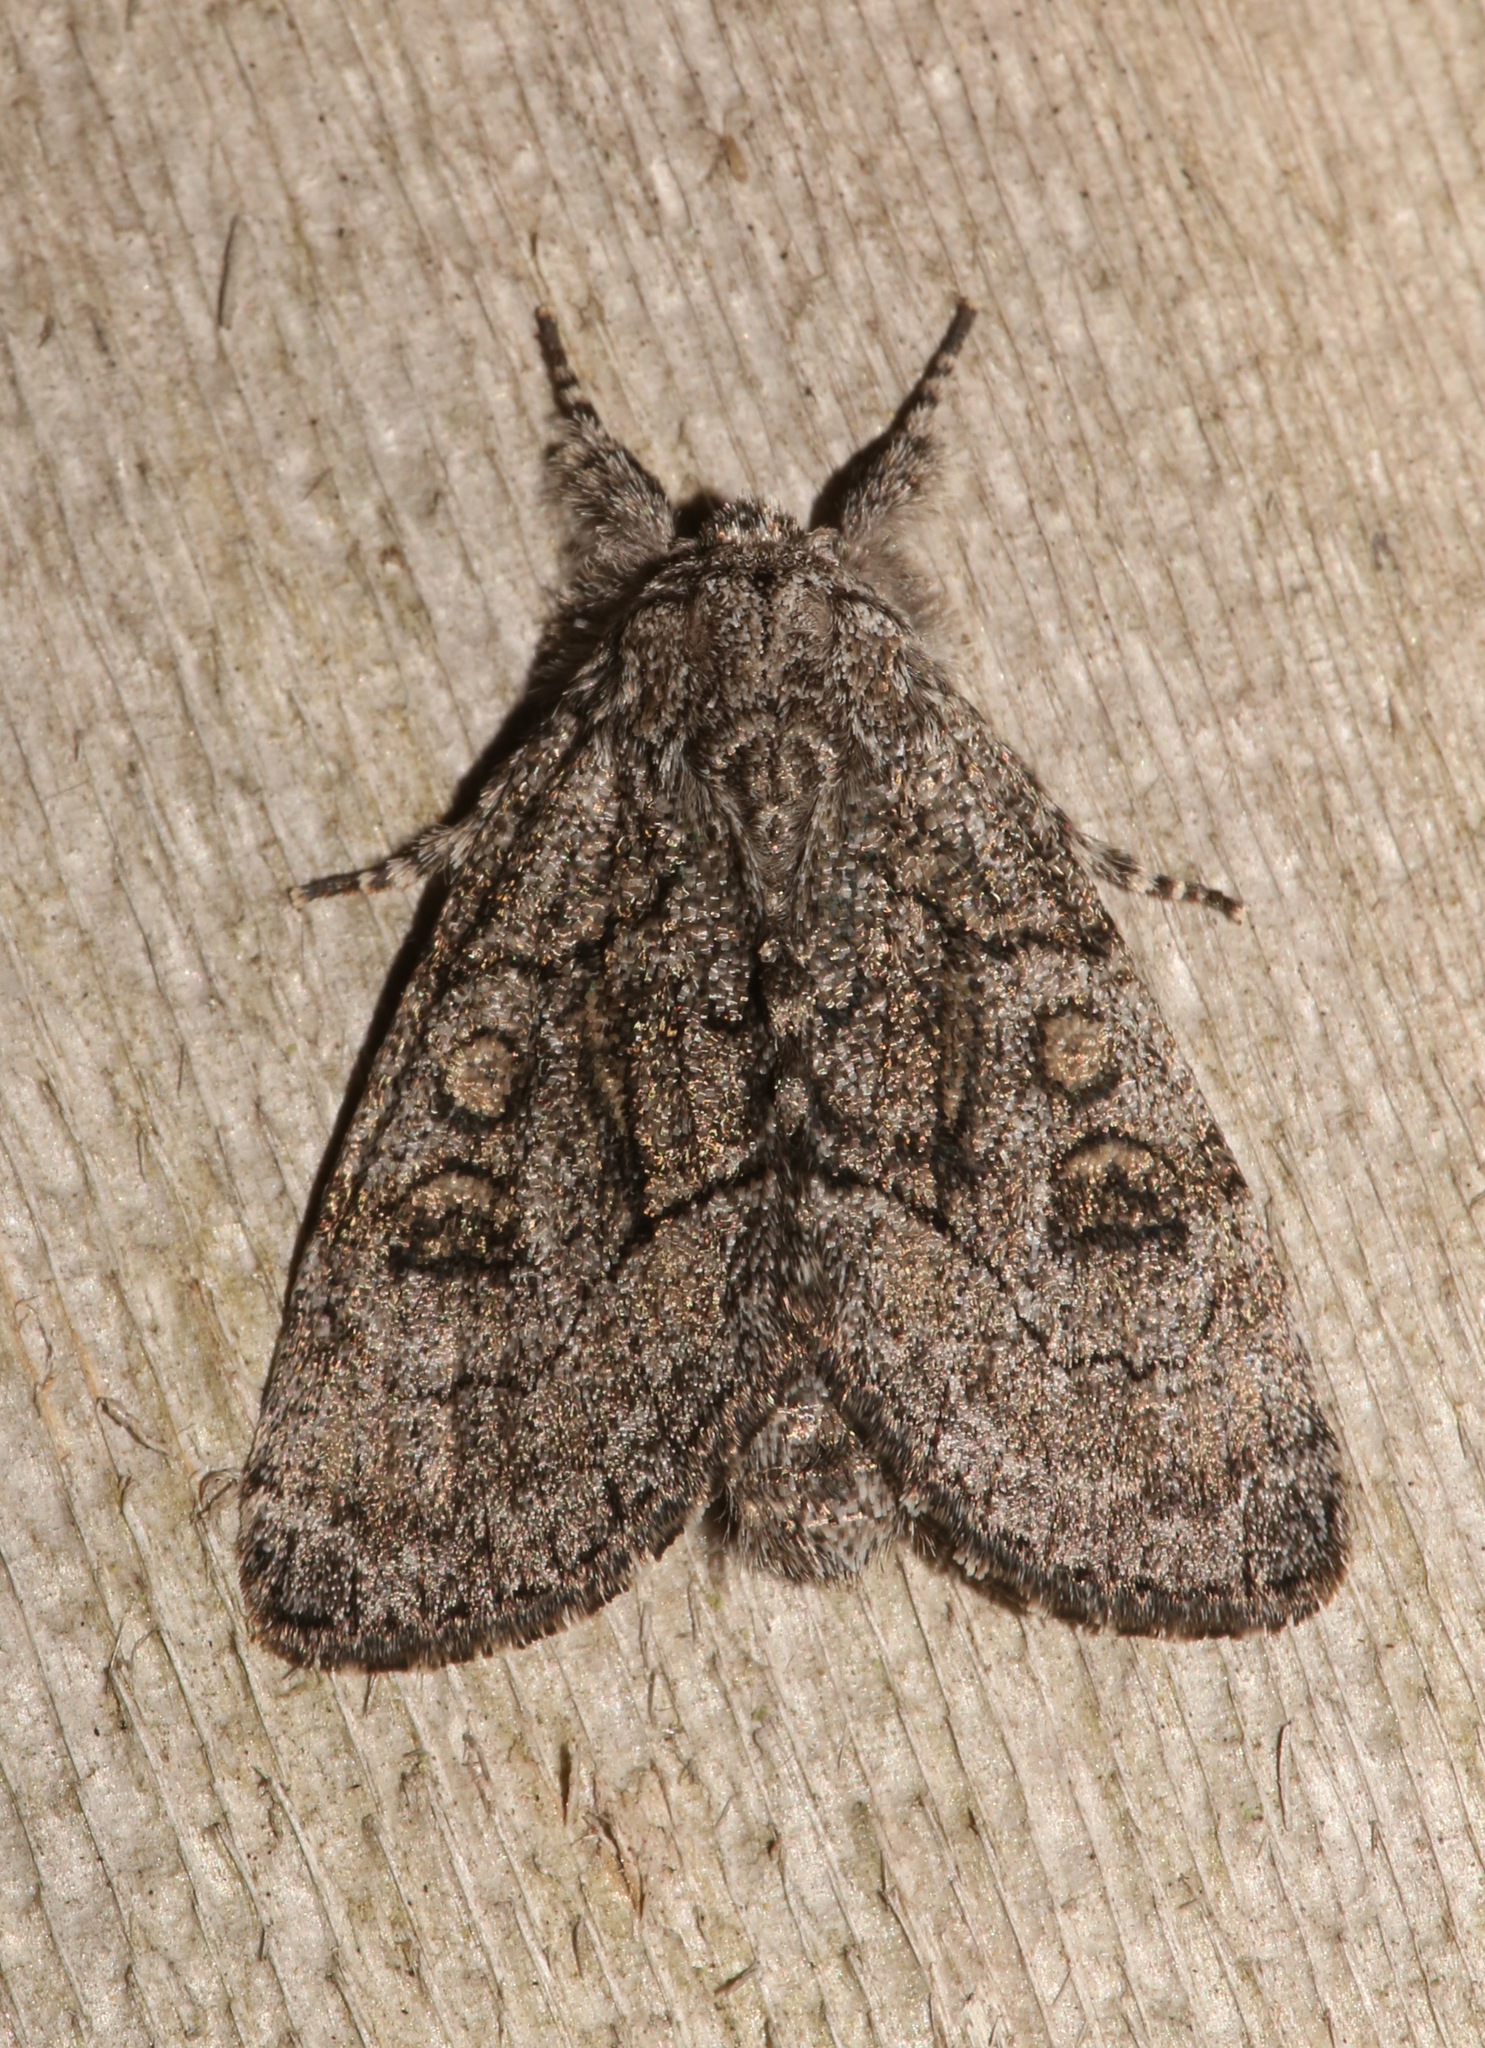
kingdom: Animalia
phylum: Arthropoda
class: Insecta
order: Lepidoptera
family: Noctuidae
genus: Raphia
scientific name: Raphia frater
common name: Brother
